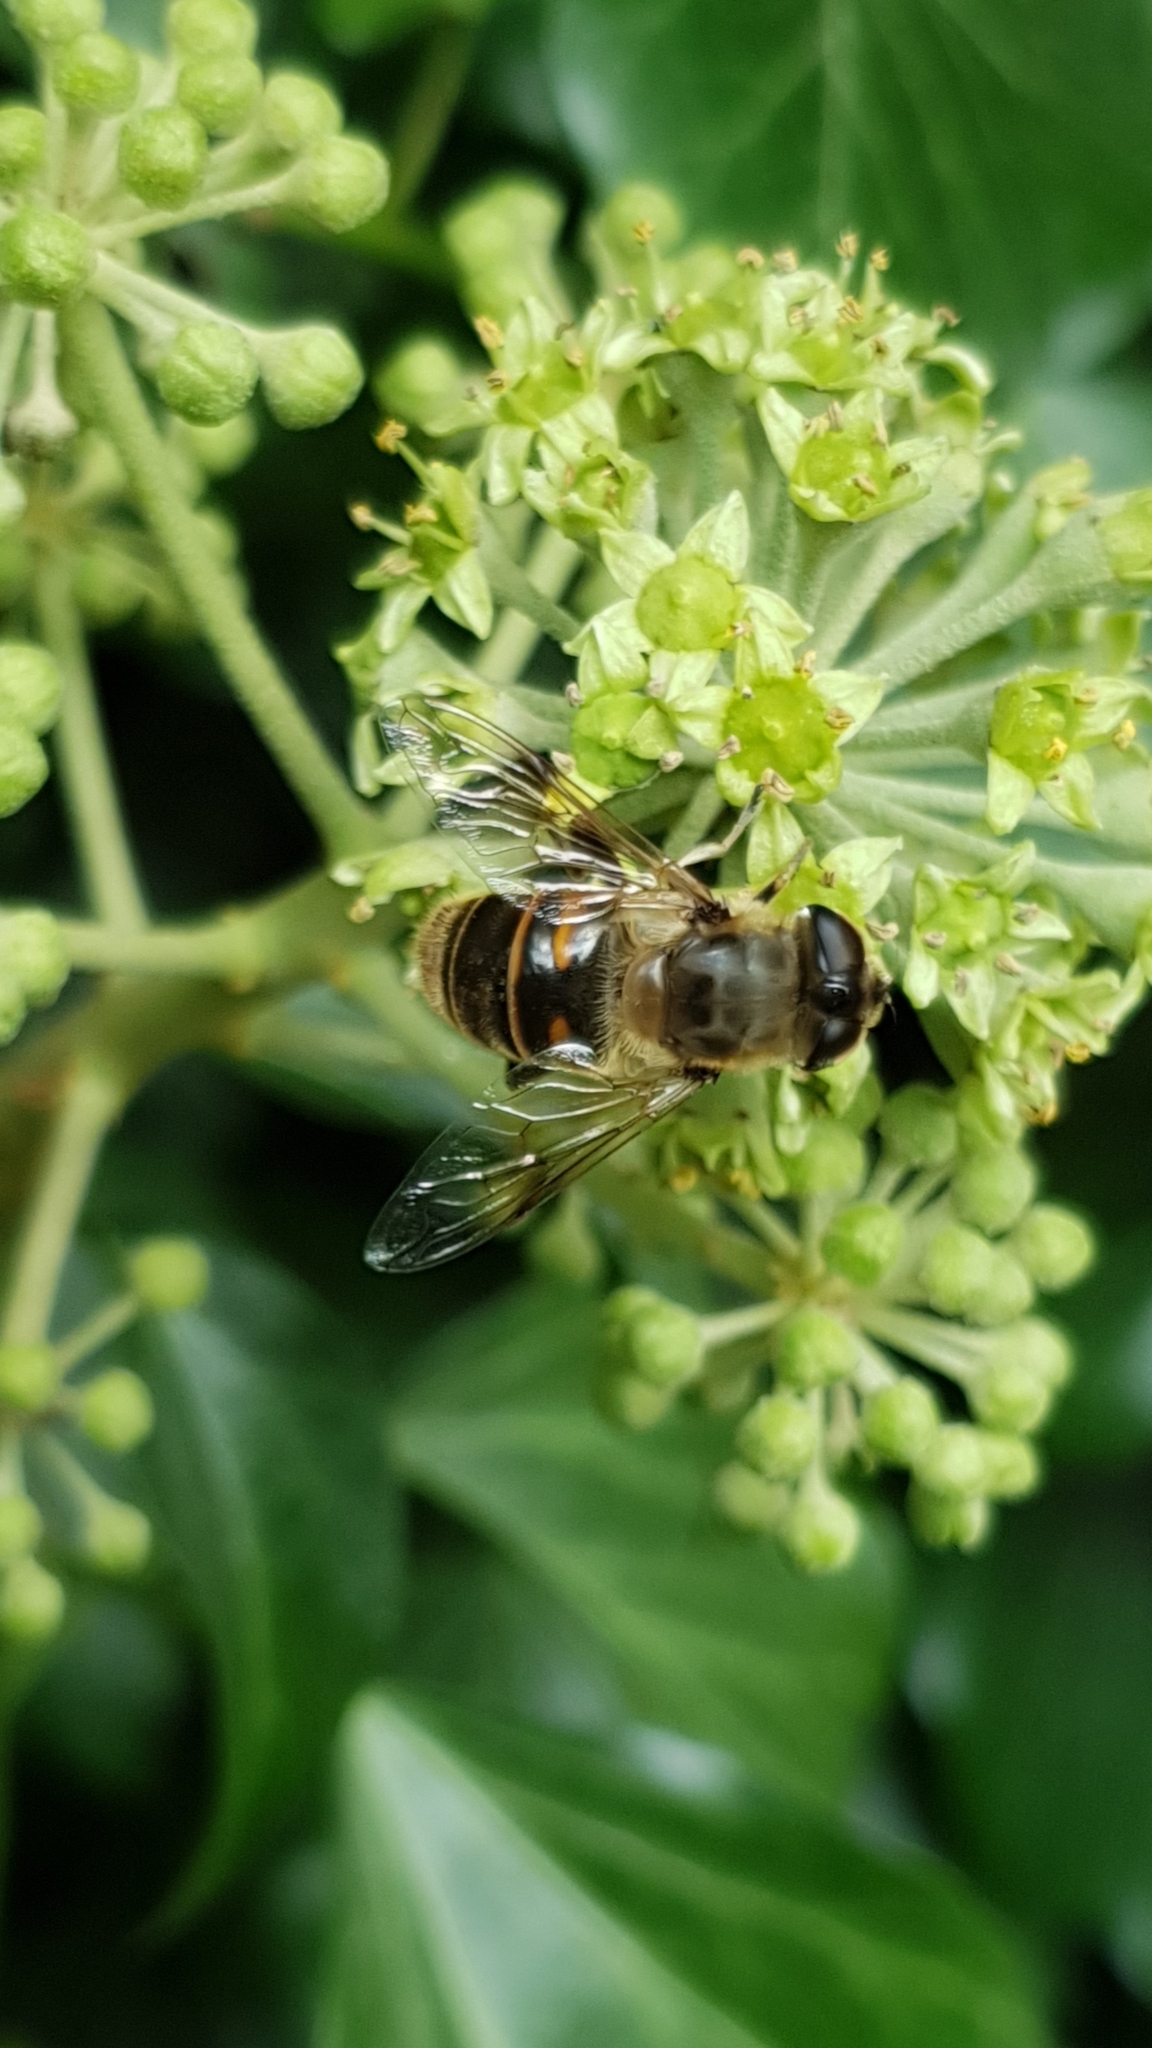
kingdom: Animalia
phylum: Arthropoda
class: Insecta
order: Diptera
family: Syrphidae
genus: Eristalis
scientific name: Eristalis tenax
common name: Drone fly
